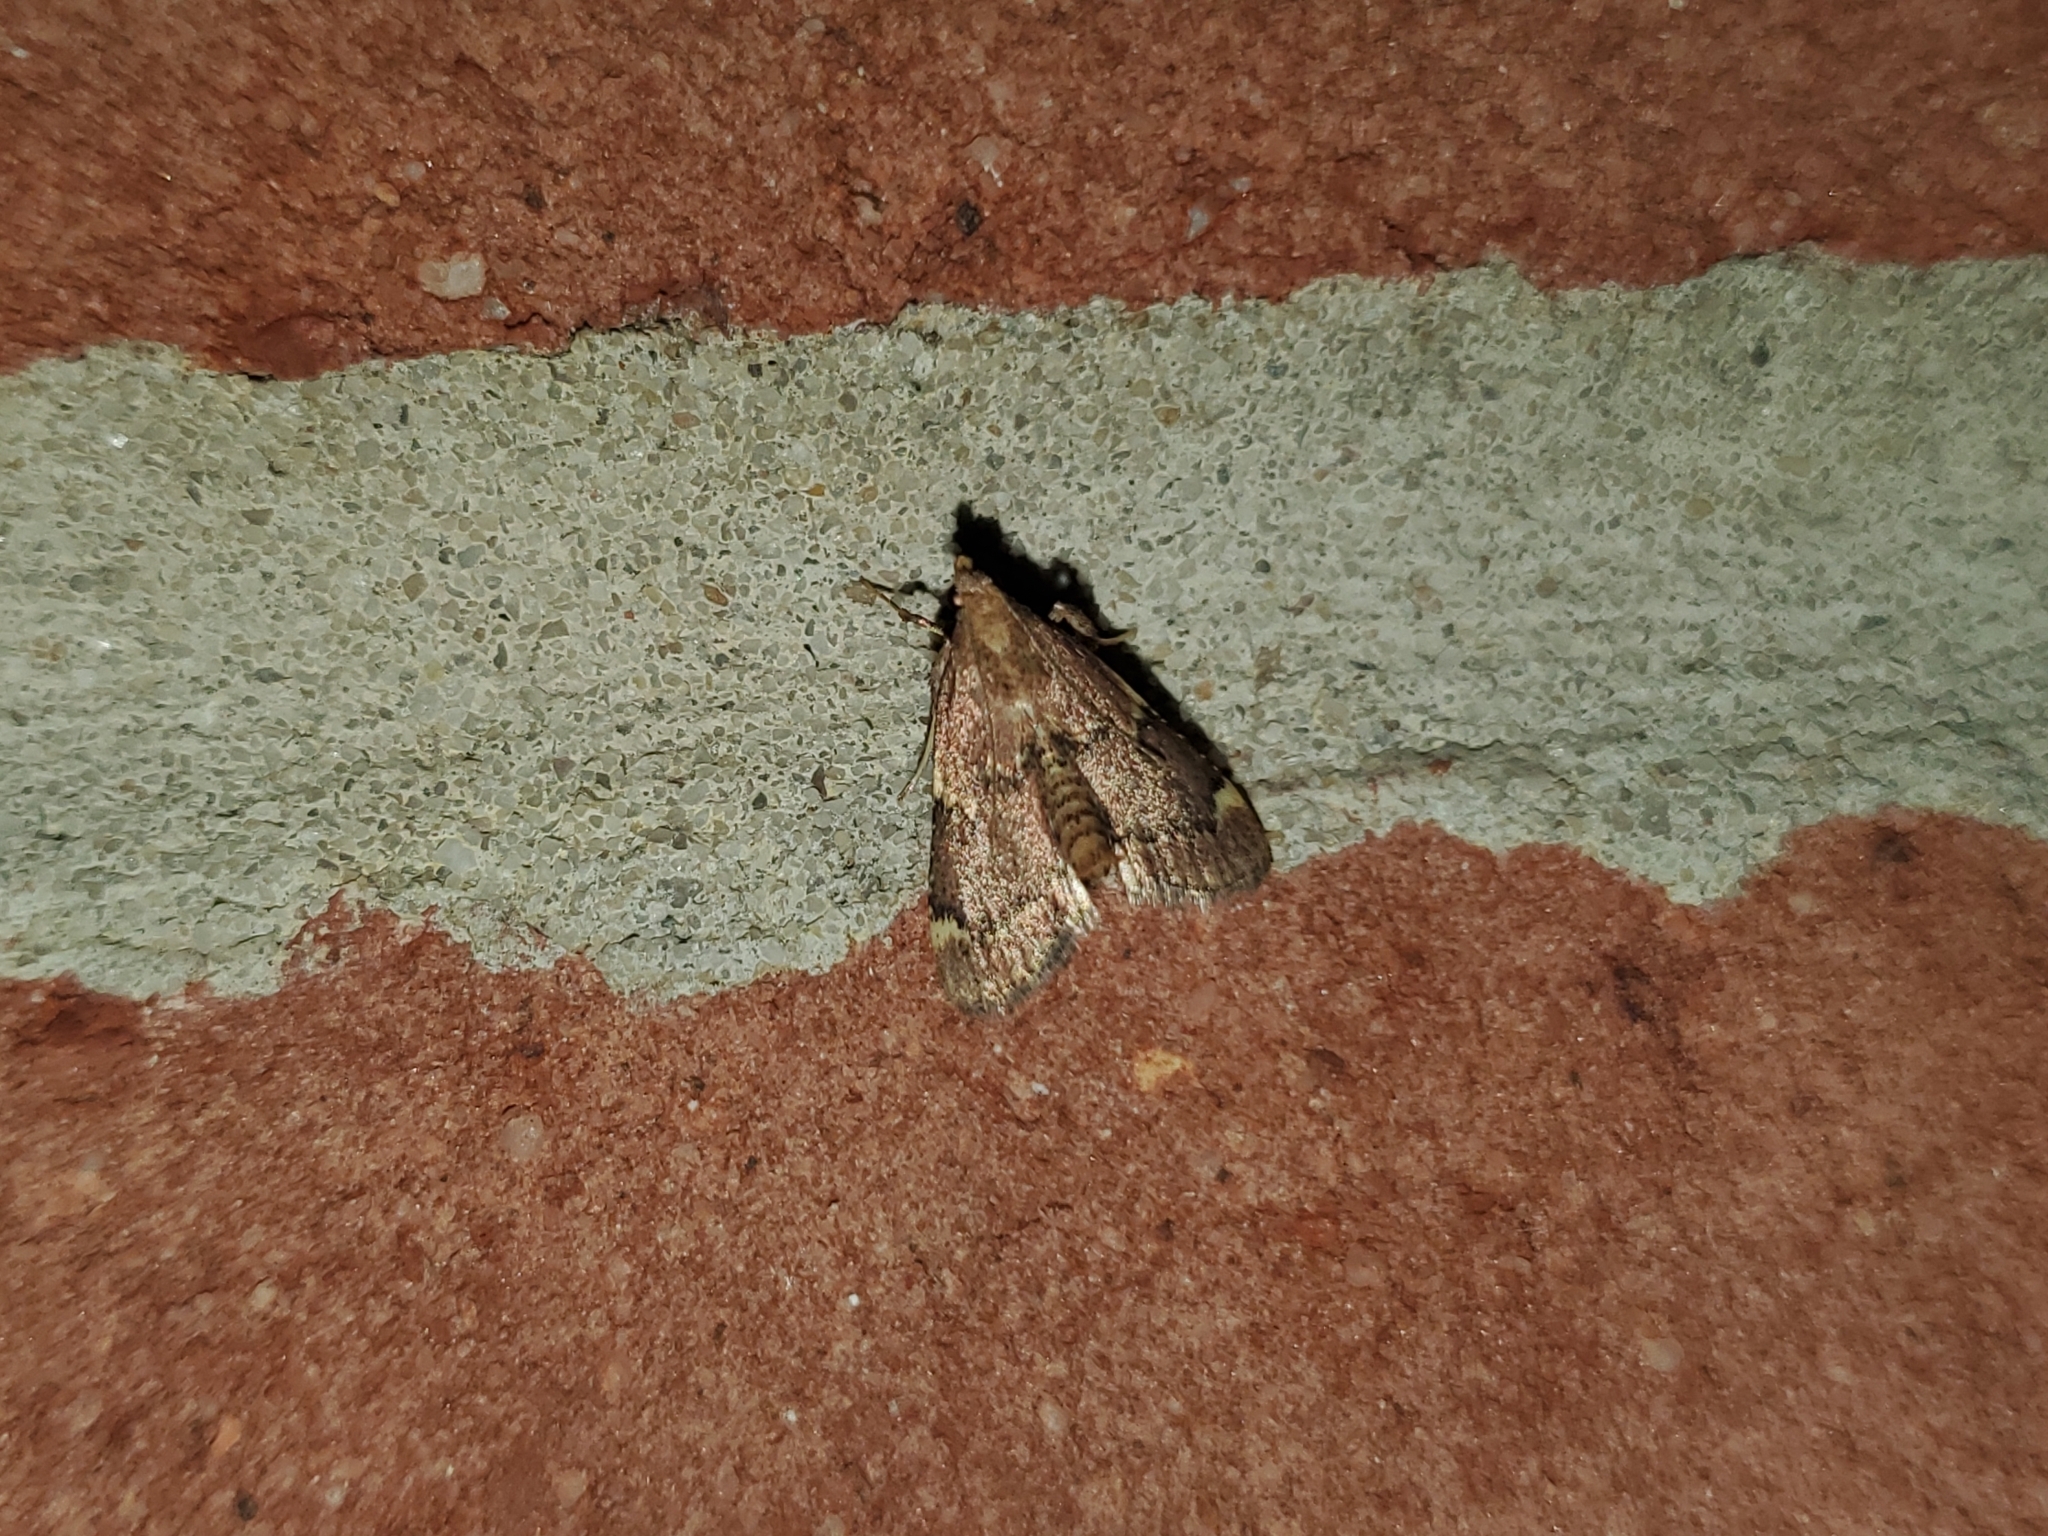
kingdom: Animalia
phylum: Arthropoda
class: Insecta
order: Lepidoptera
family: Pyralidae
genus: Hypsopygia
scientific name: Hypsopygia intermedialis
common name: Red-shawled moth
